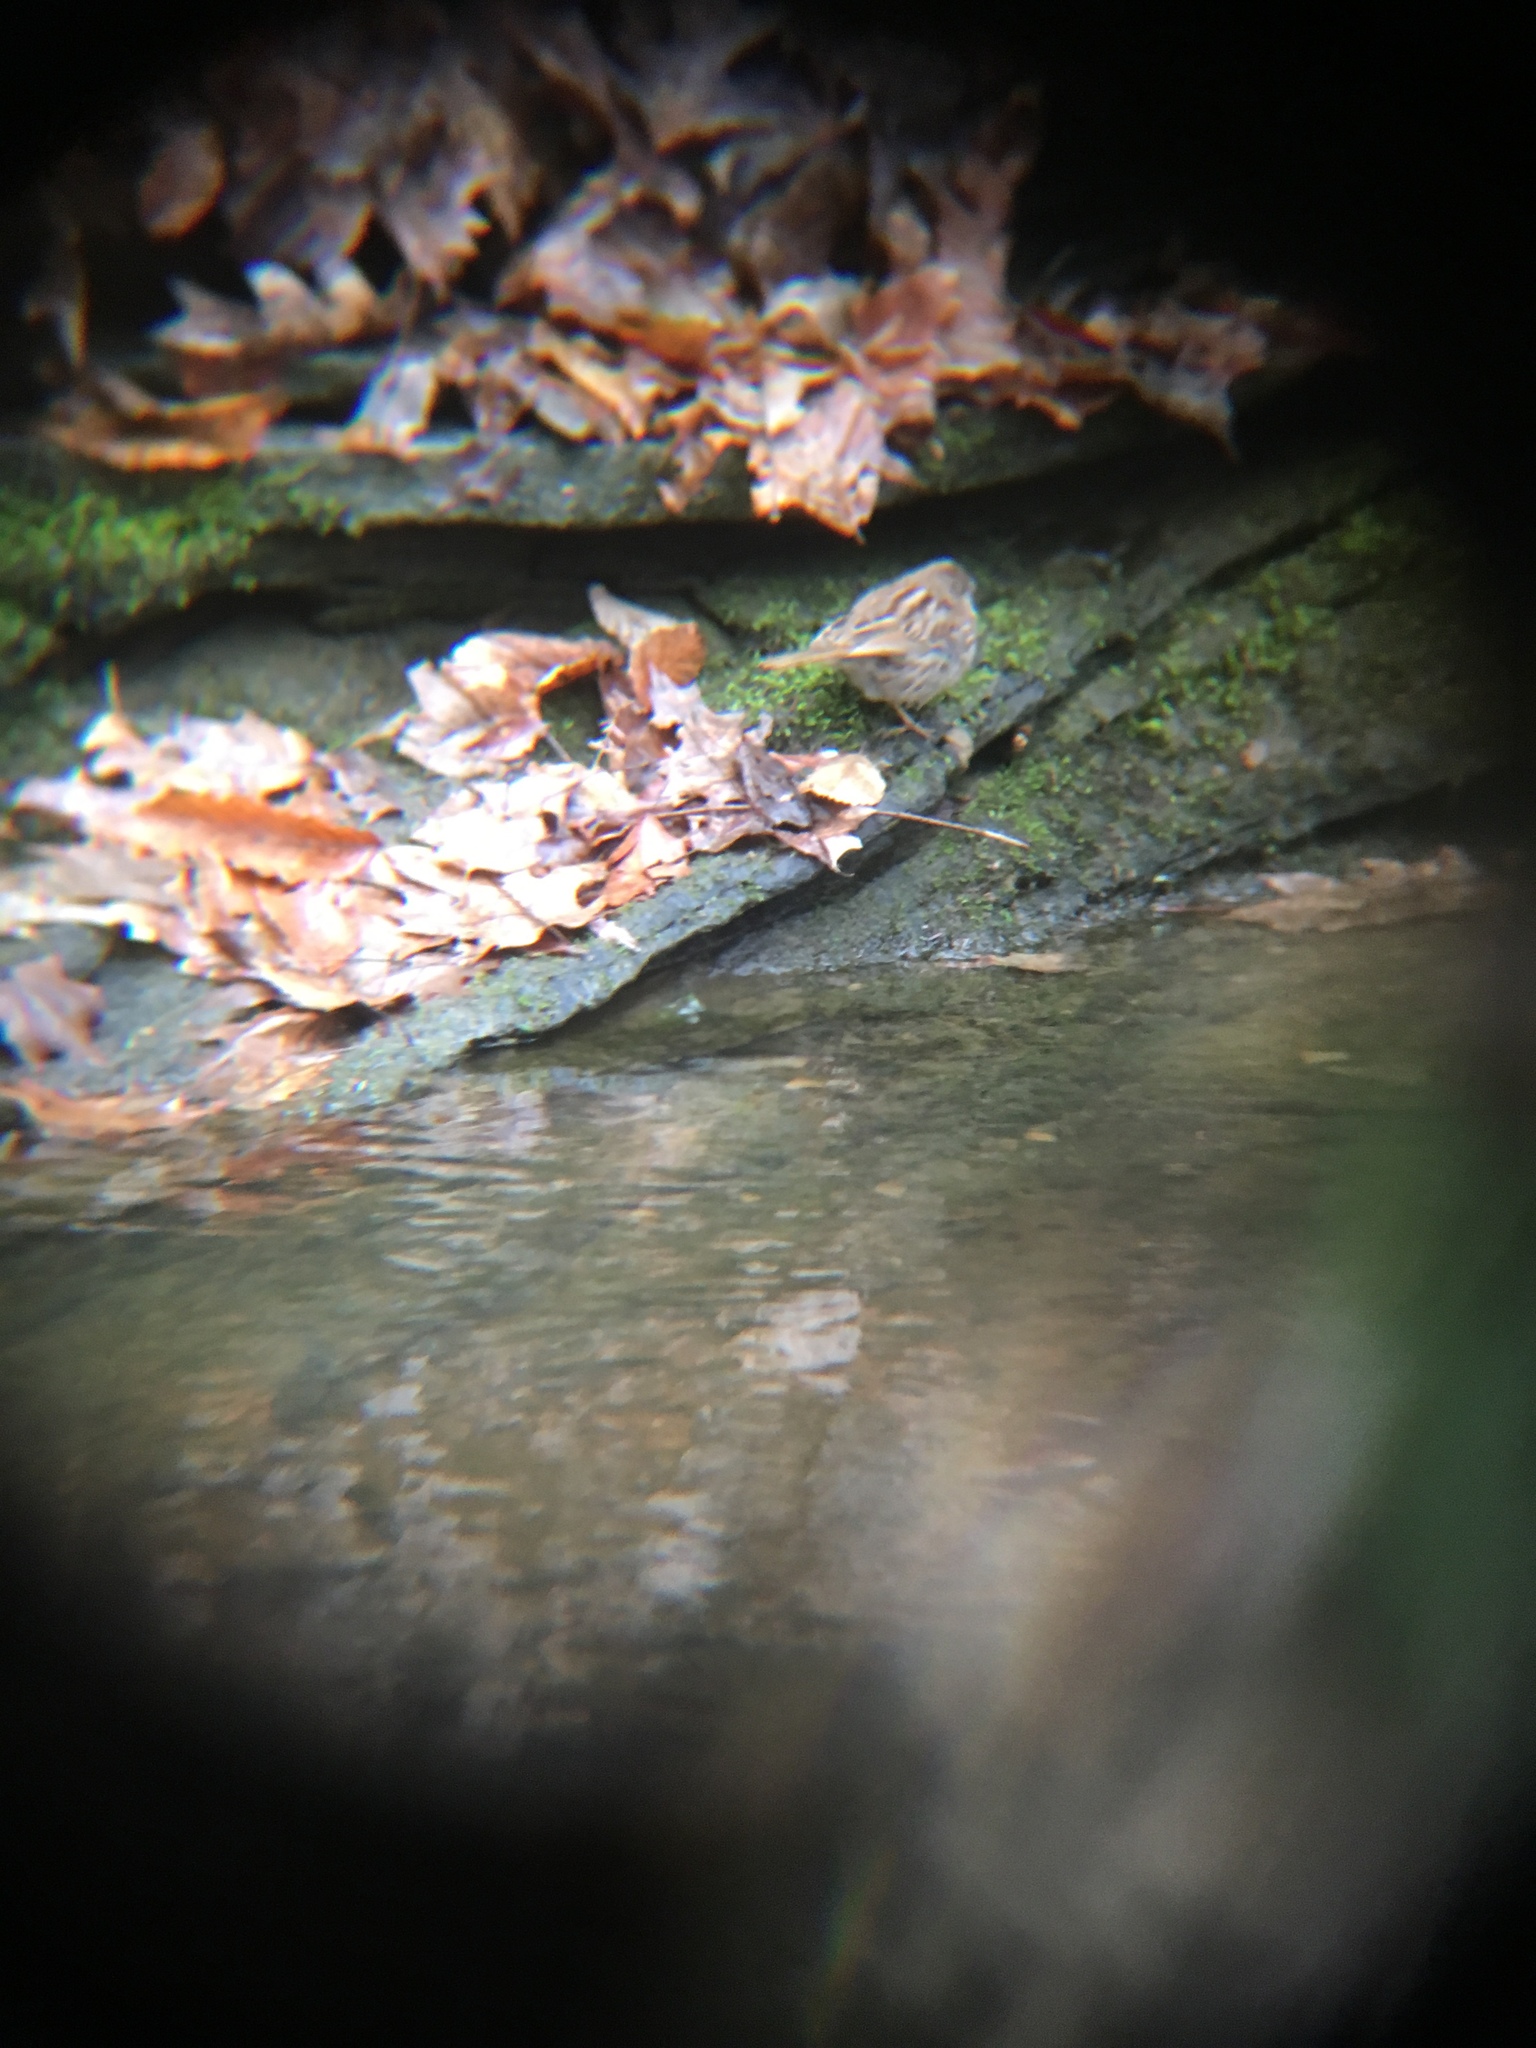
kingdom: Animalia
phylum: Chordata
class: Aves
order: Passeriformes
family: Passerellidae
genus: Melospiza
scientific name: Melospiza melodia
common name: Song sparrow
